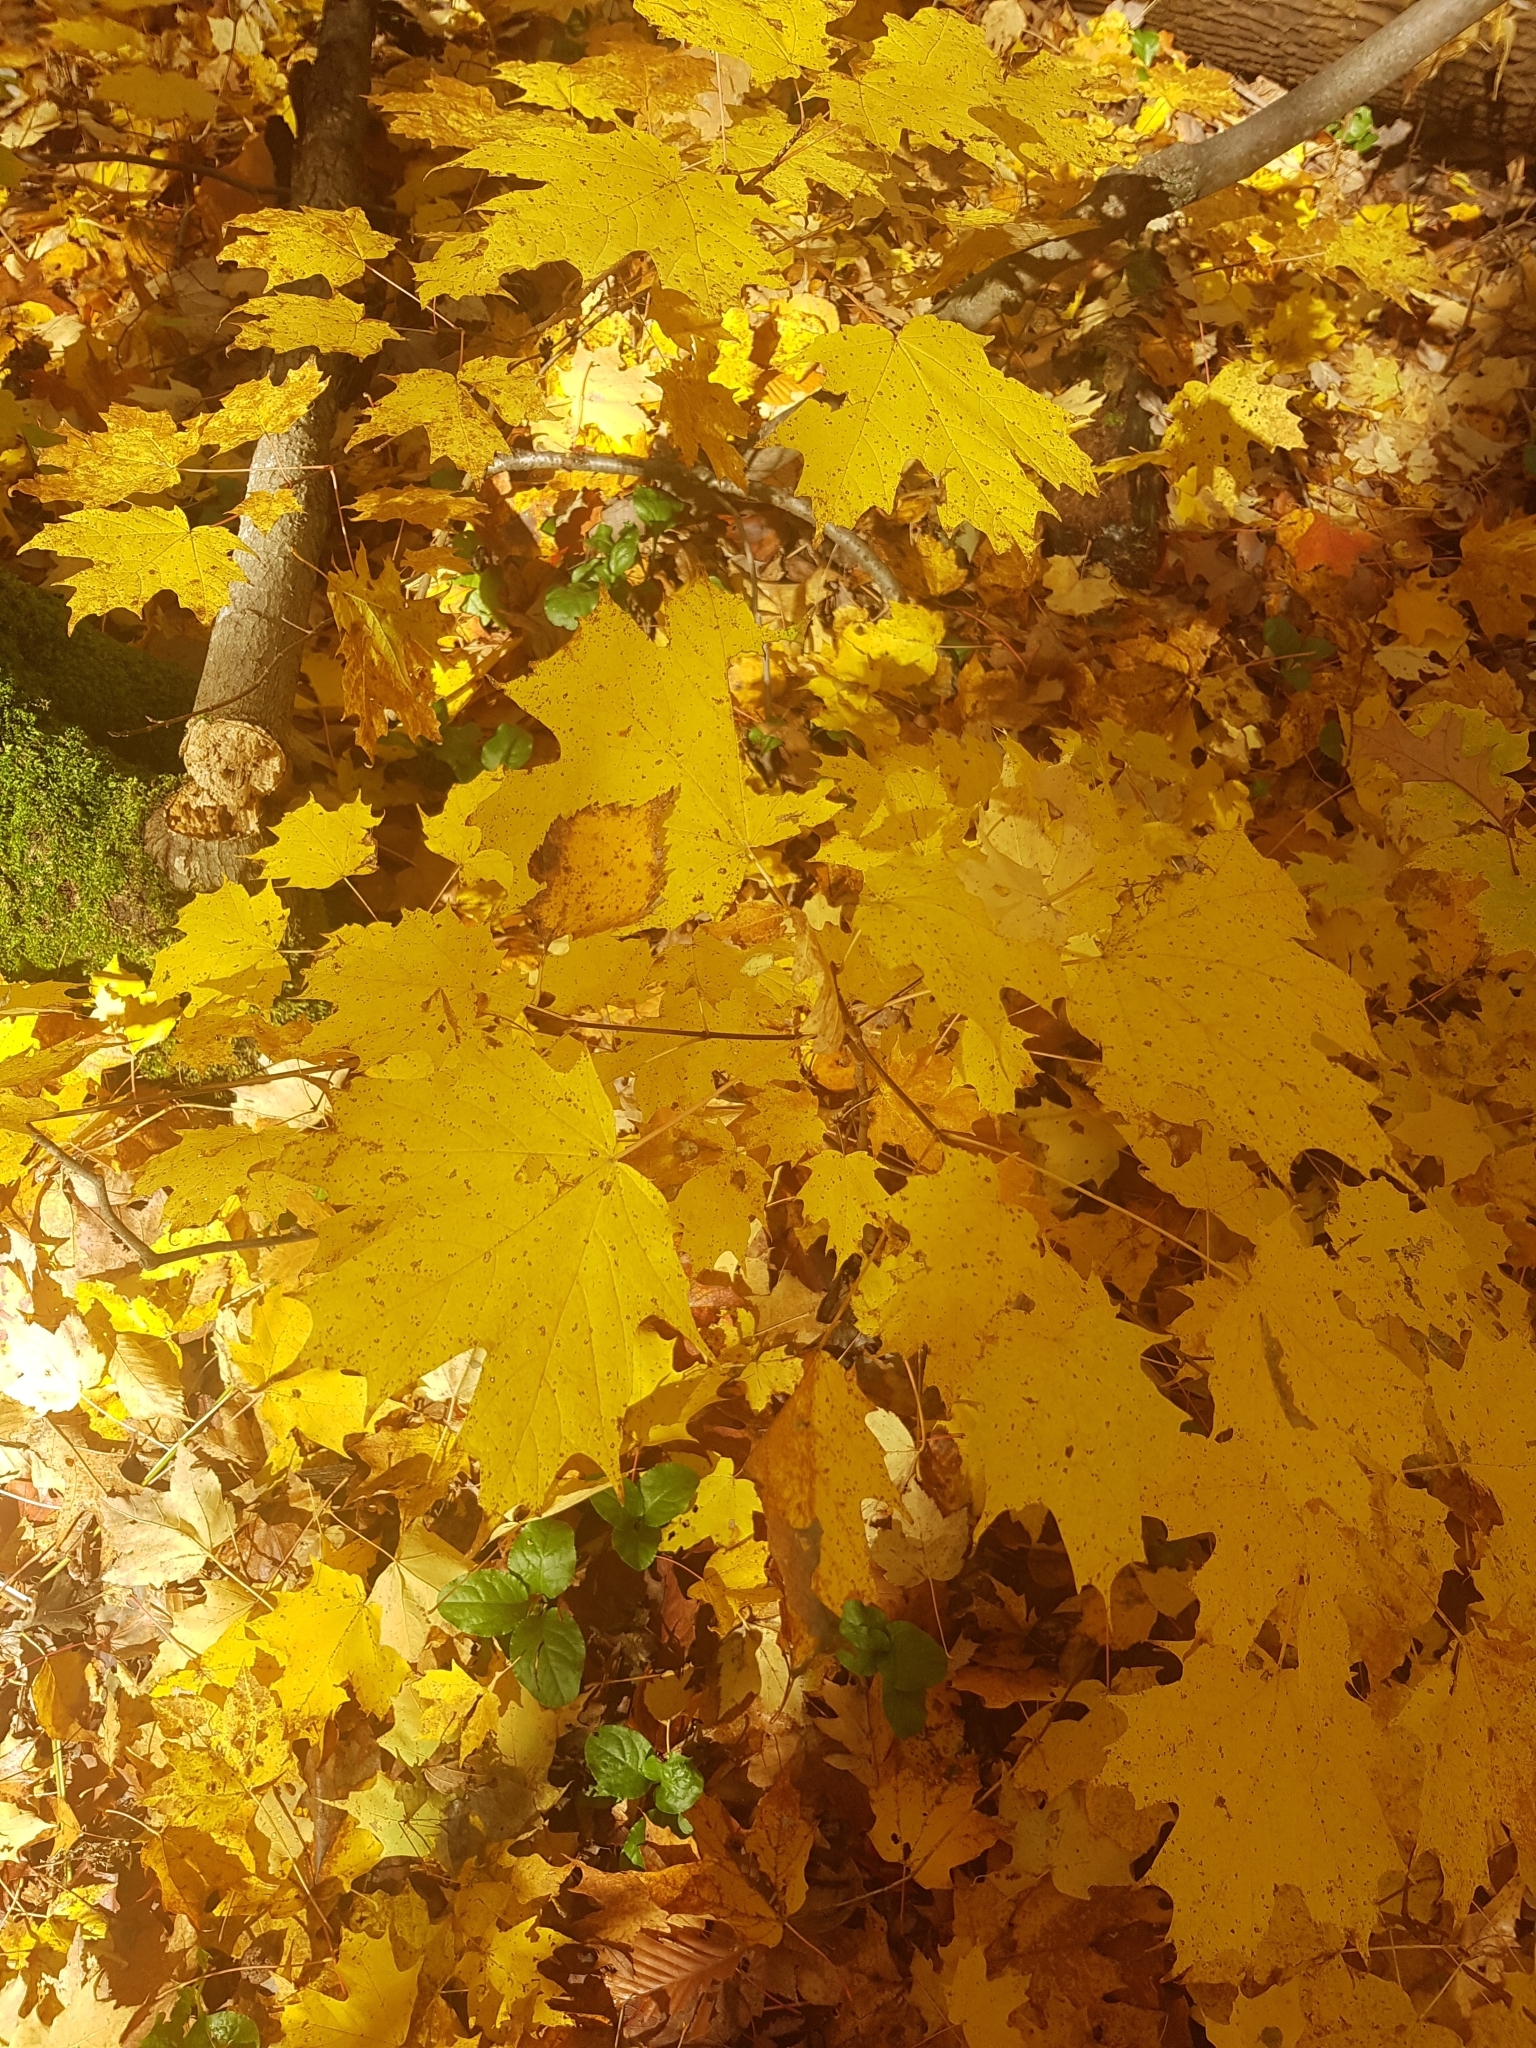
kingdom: Plantae
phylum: Tracheophyta
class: Magnoliopsida
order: Sapindales
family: Sapindaceae
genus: Acer
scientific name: Acer saccharum
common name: Sugar maple
